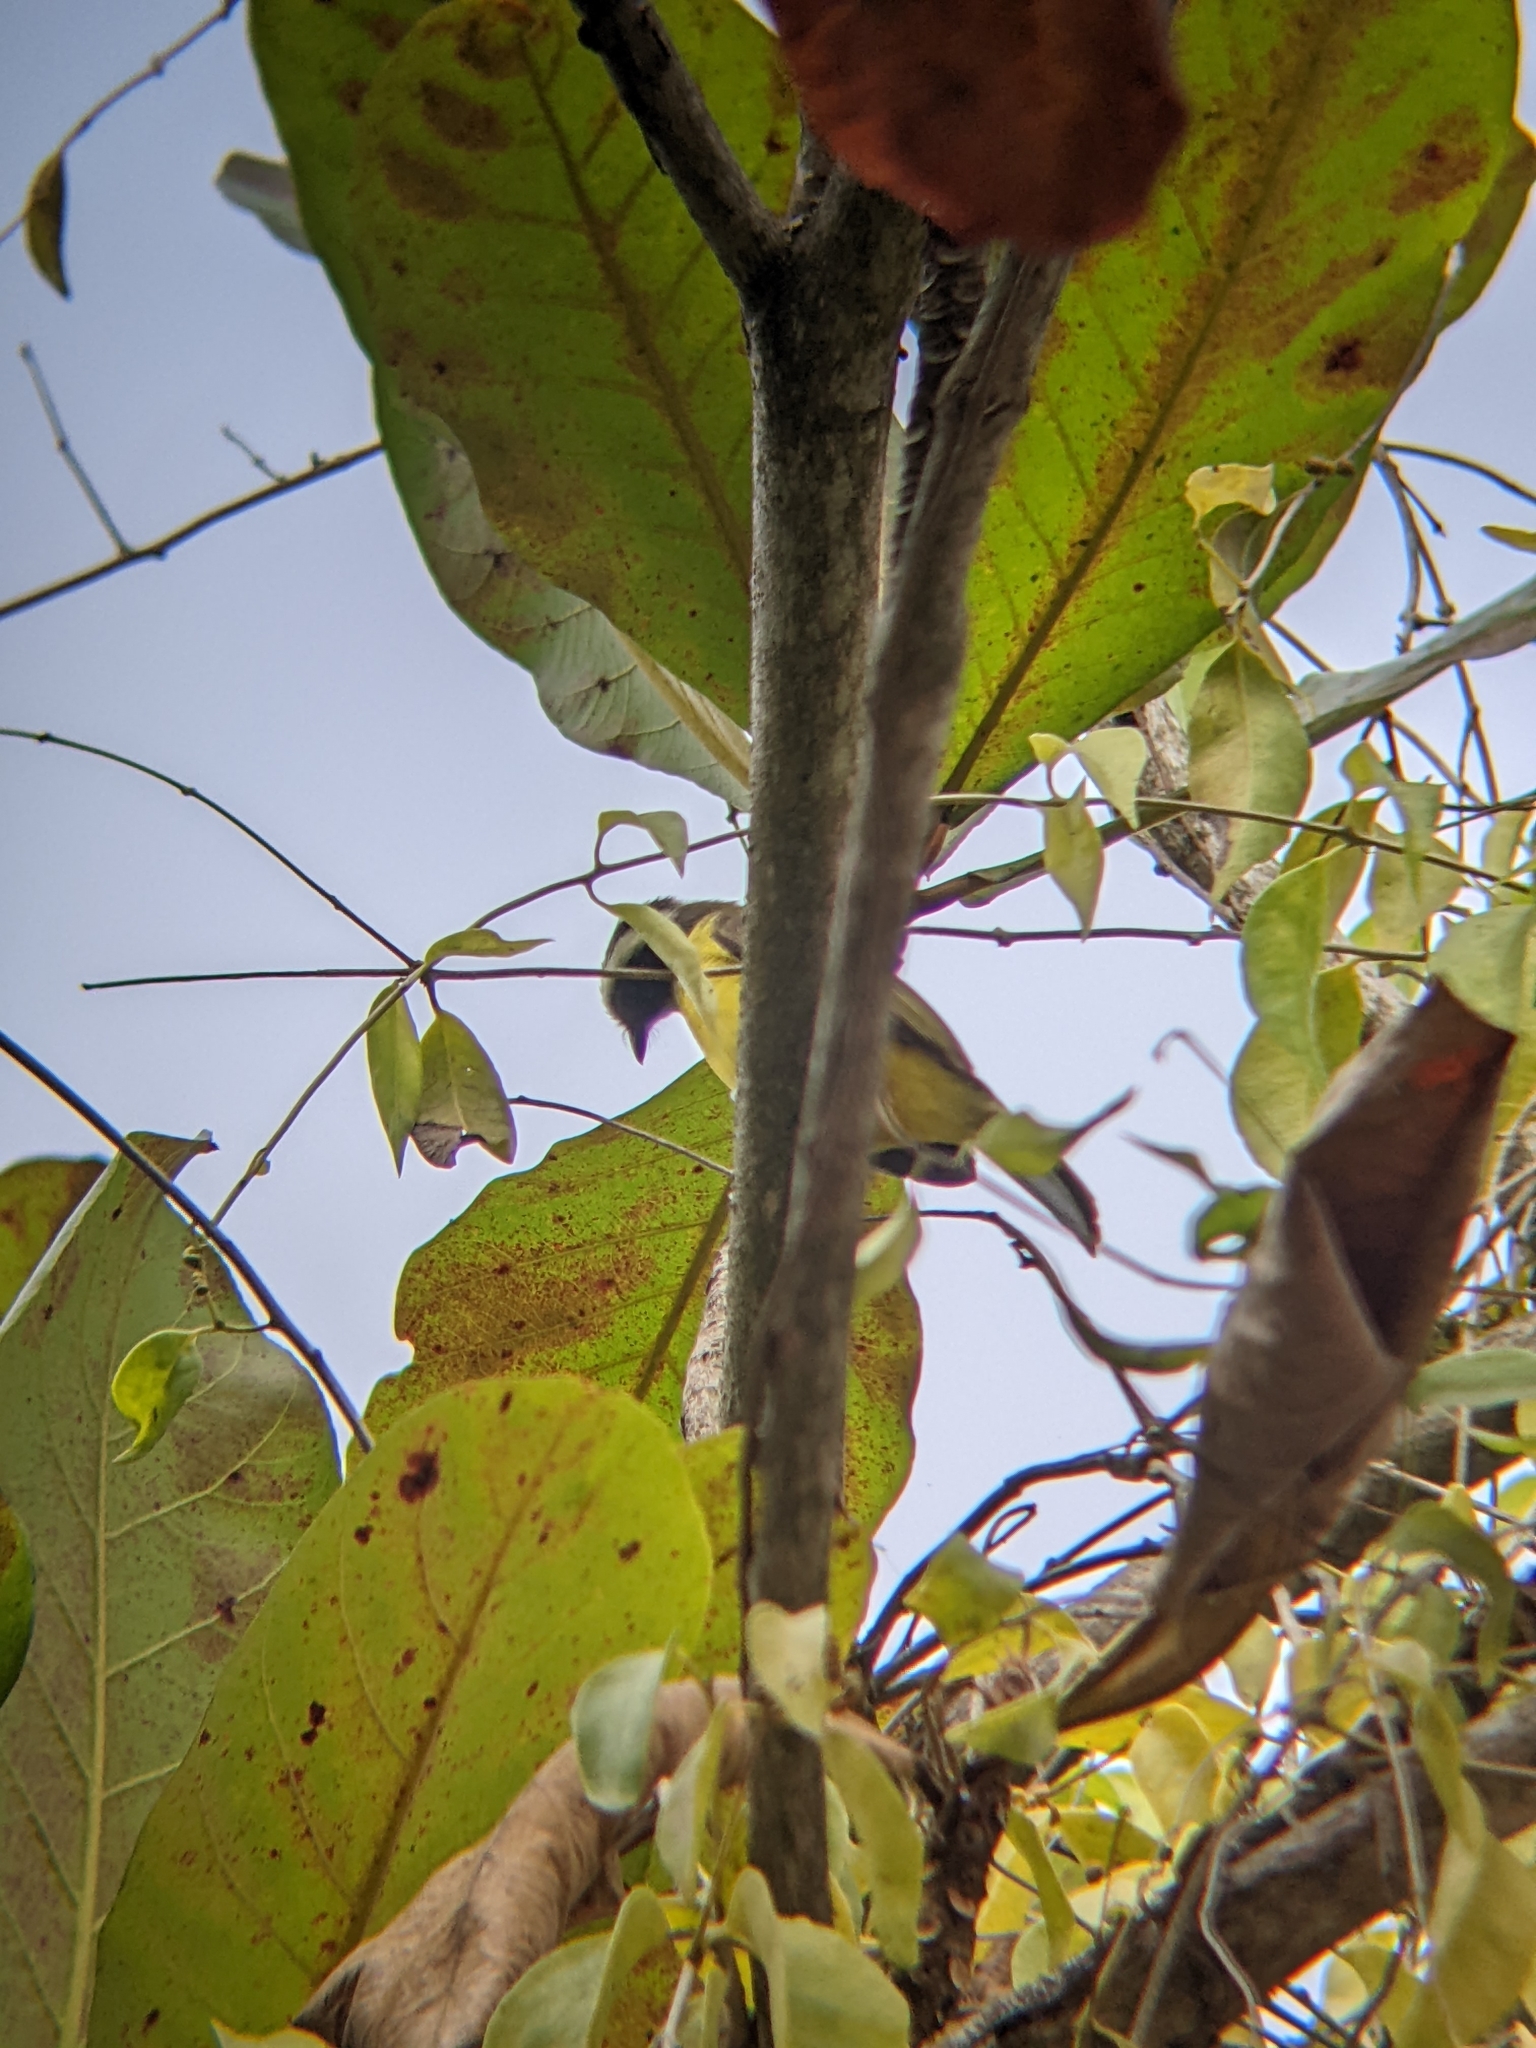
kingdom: Animalia
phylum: Chordata
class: Aves
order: Passeriformes
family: Tyrannidae
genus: Myiozetetes
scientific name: Myiozetetes similis
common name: Social flycatcher
